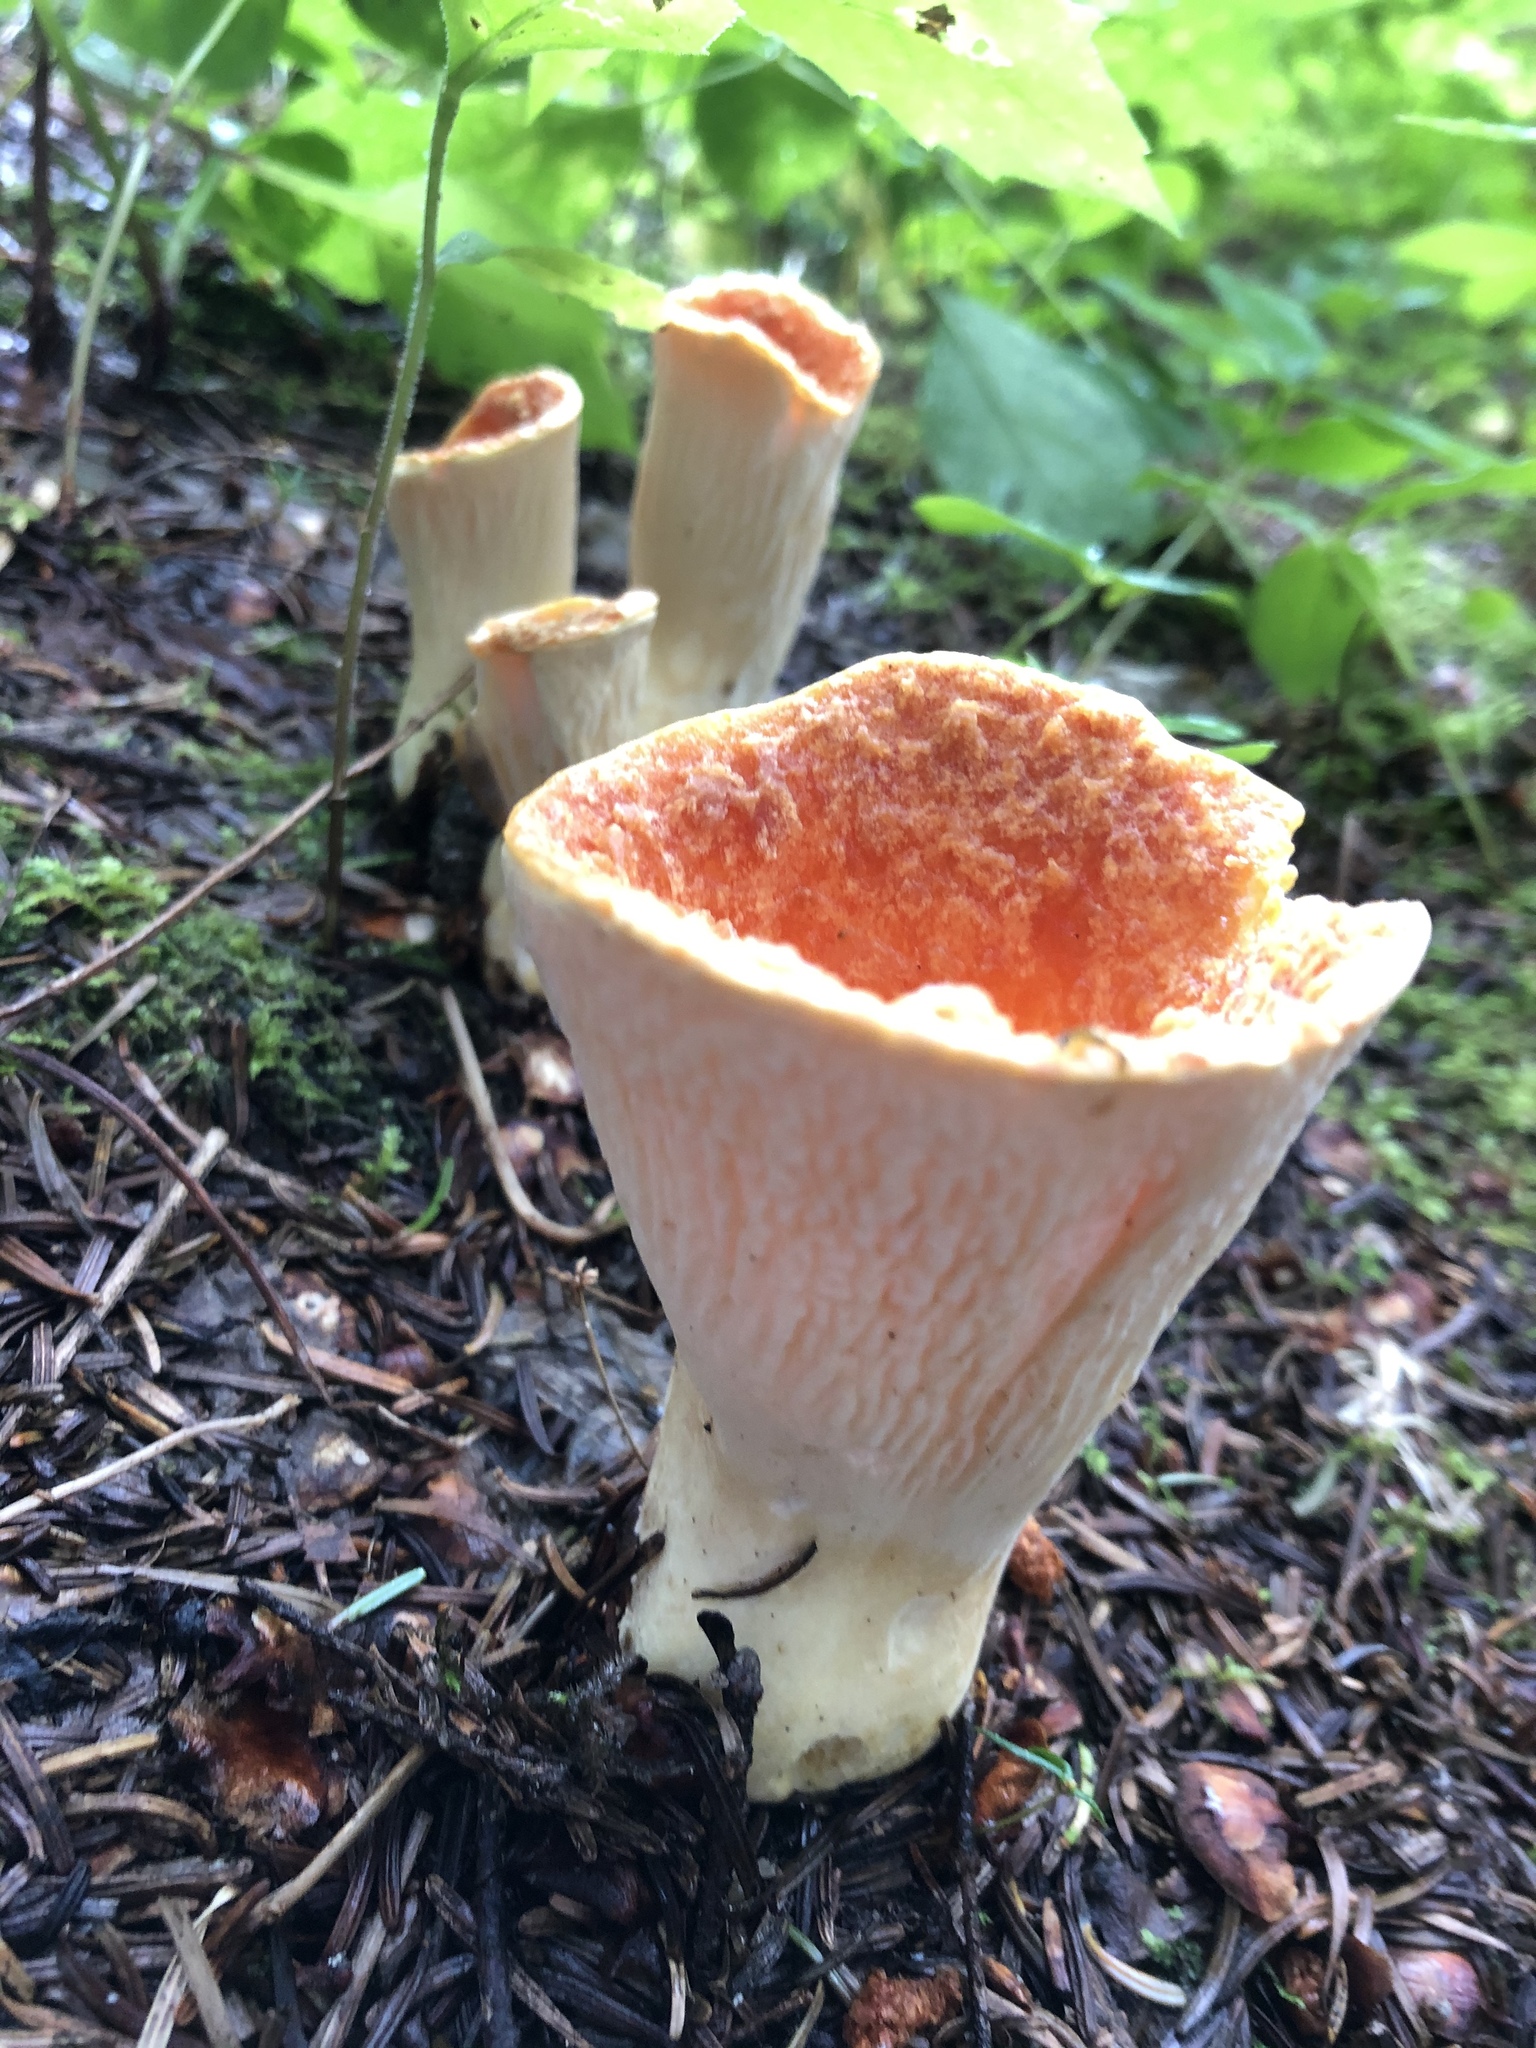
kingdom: Fungi
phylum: Basidiomycota
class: Agaricomycetes
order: Gomphales
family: Gomphaceae
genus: Turbinellus
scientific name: Turbinellus floccosus
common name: Scaly chanterelle
